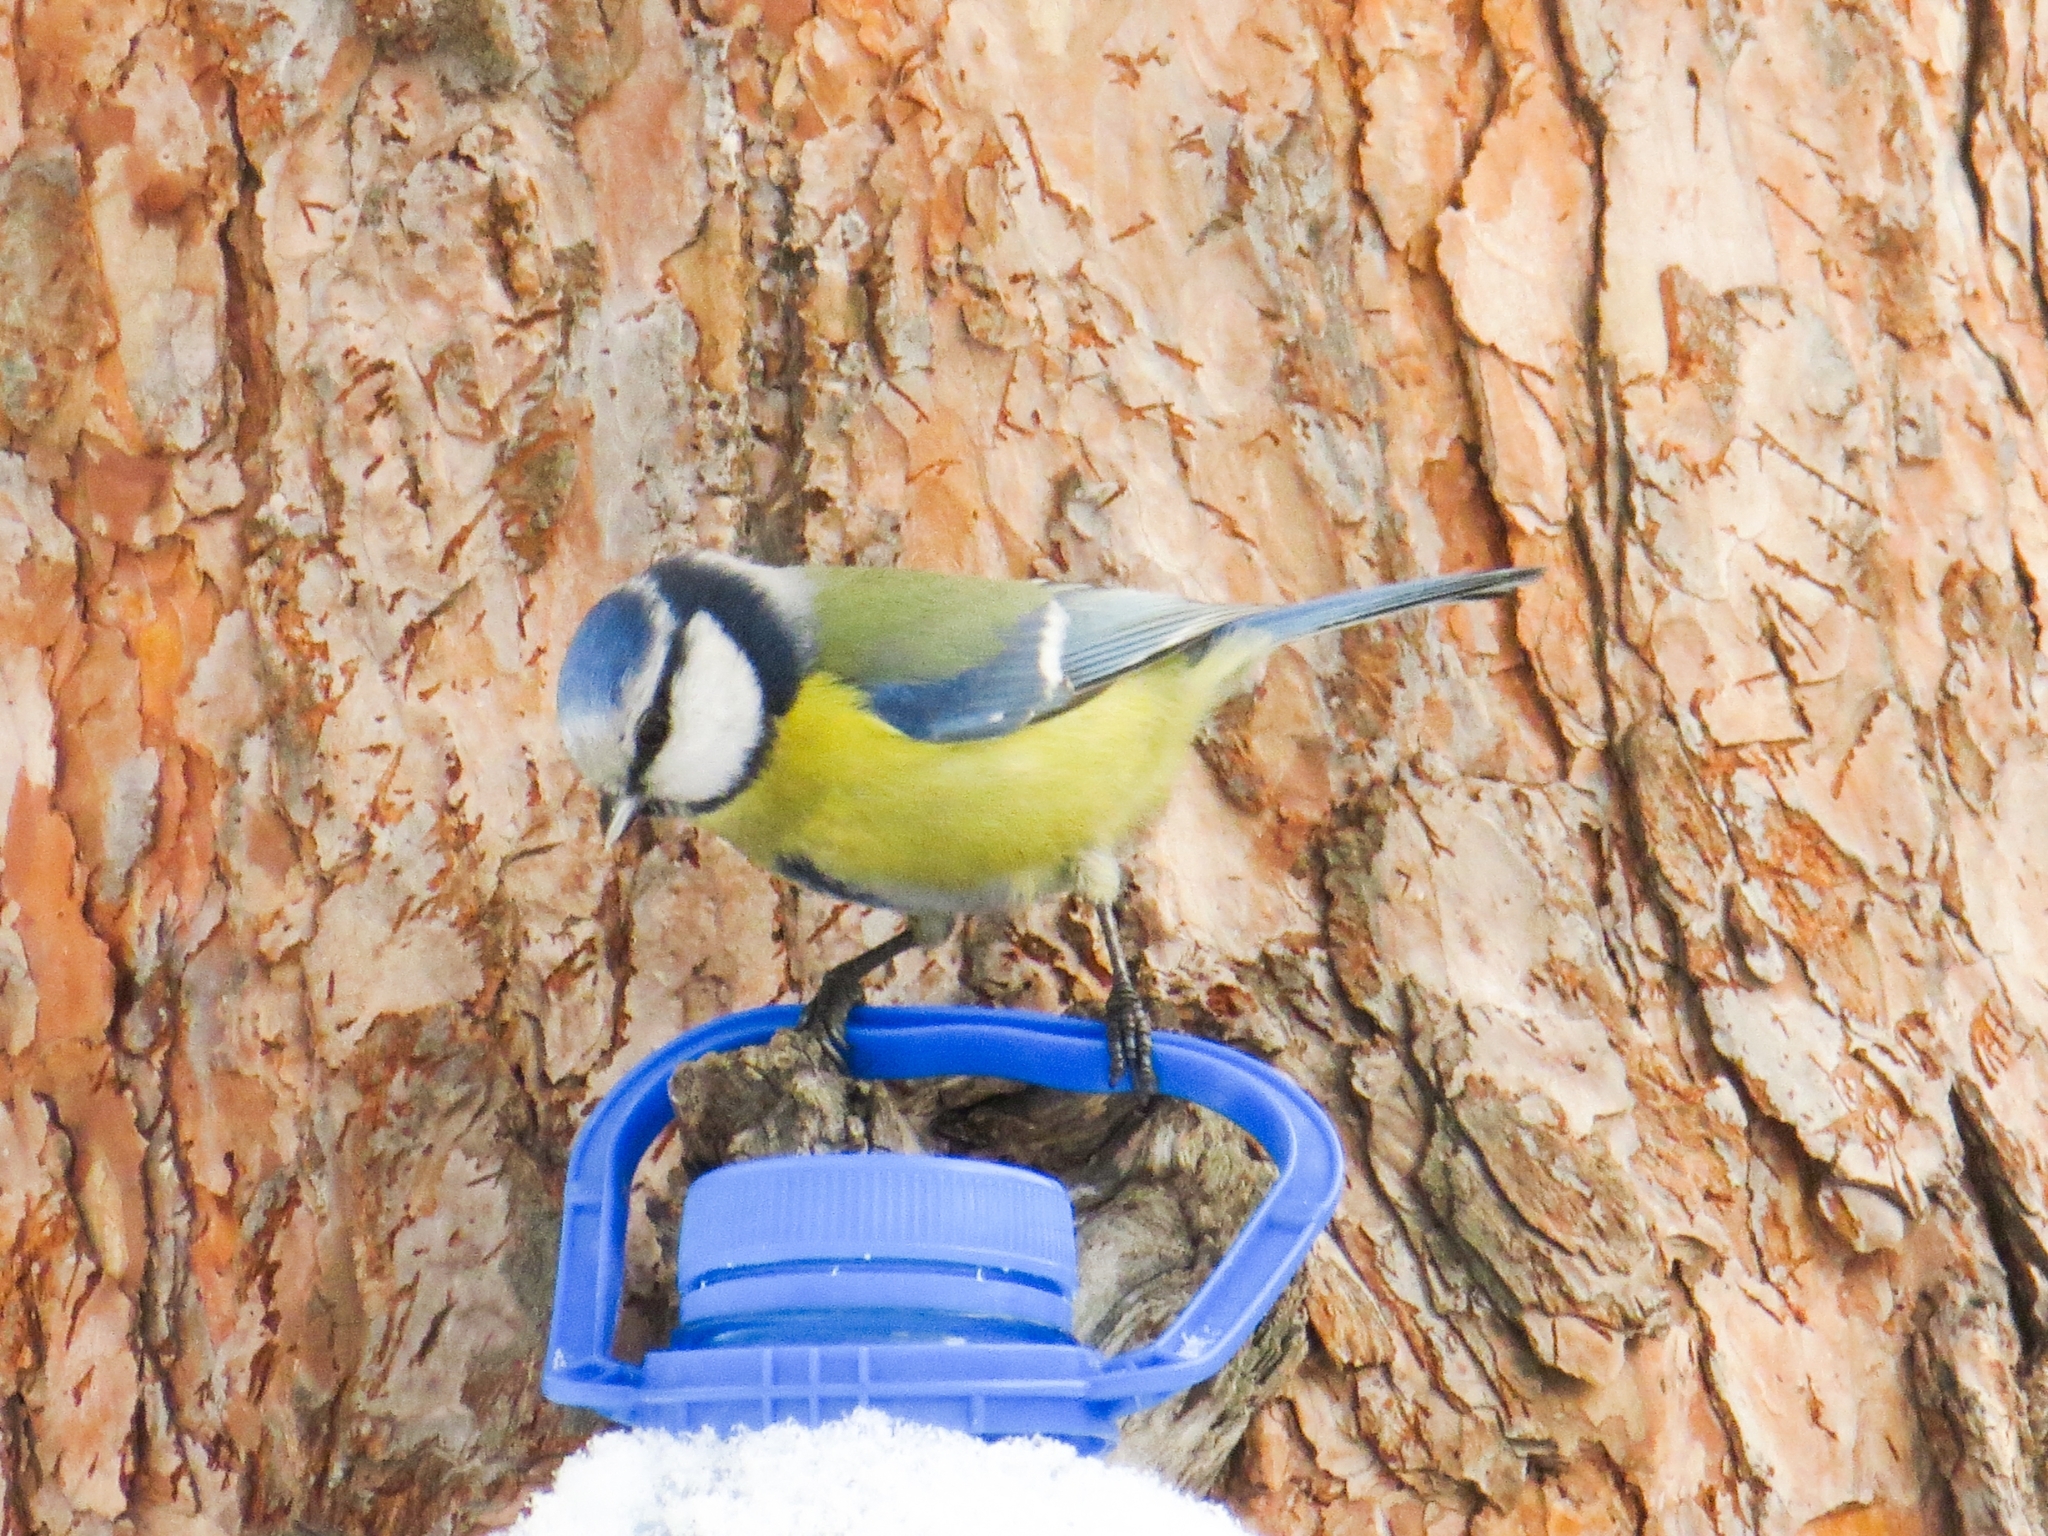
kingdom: Animalia
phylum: Chordata
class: Aves
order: Passeriformes
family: Paridae
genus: Cyanistes
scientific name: Cyanistes caeruleus
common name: Eurasian blue tit
